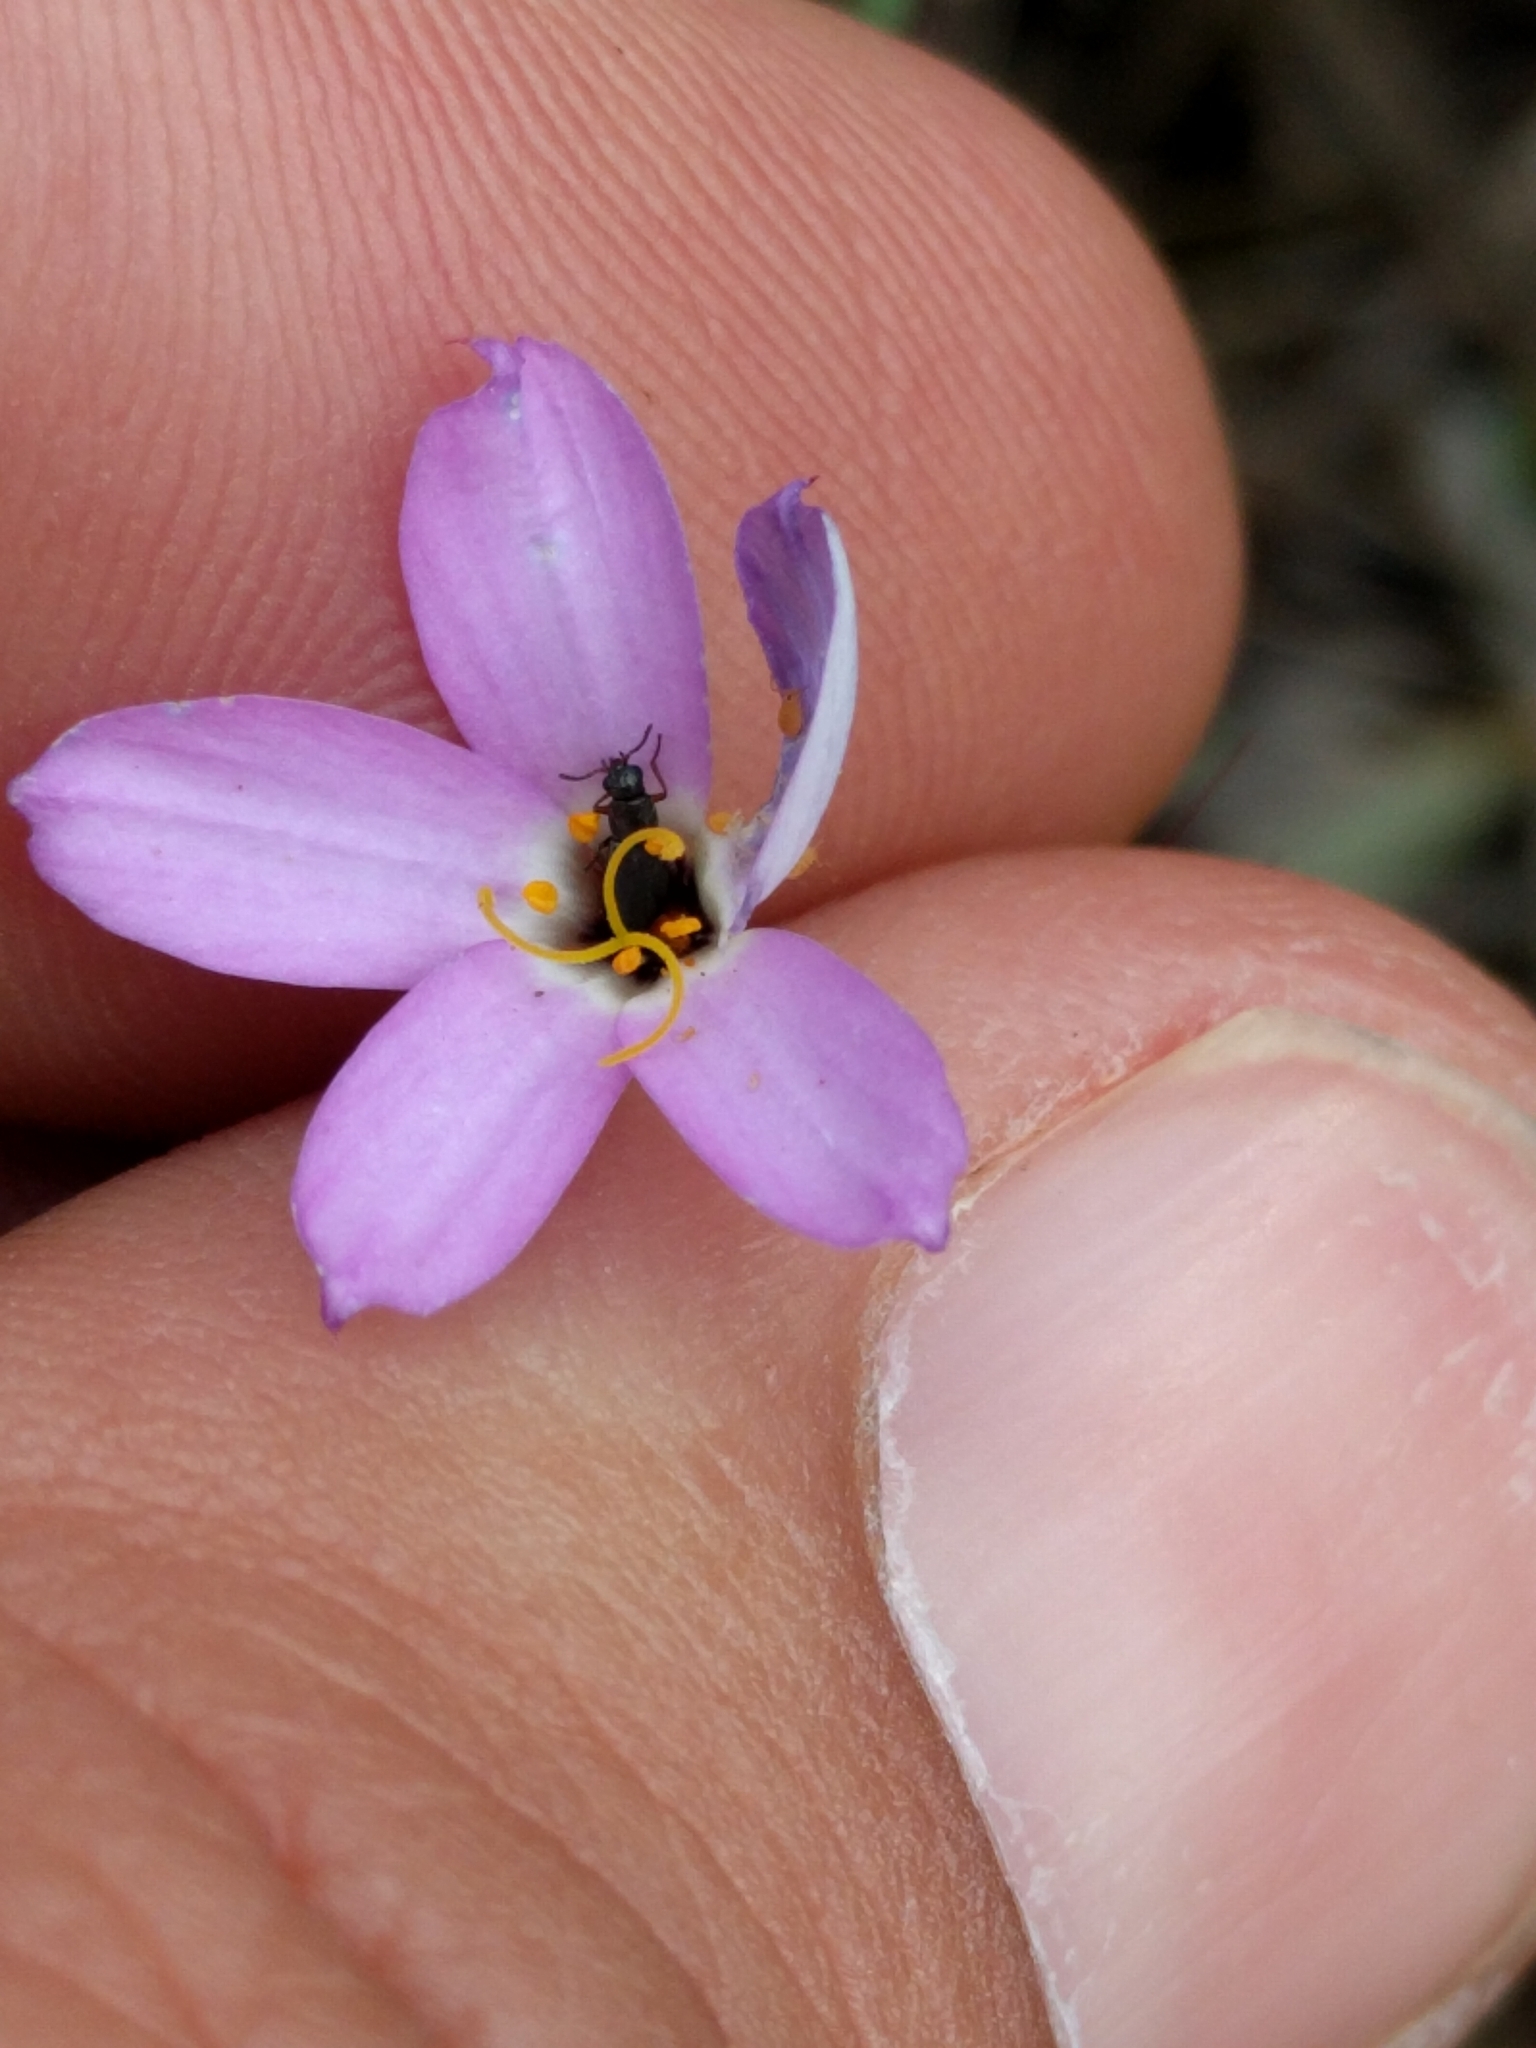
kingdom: Plantae
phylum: Tracheophyta
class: Magnoliopsida
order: Ericales
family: Polemoniaceae
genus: Leptosiphon
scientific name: Leptosiphon androsaceus
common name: False babystars
